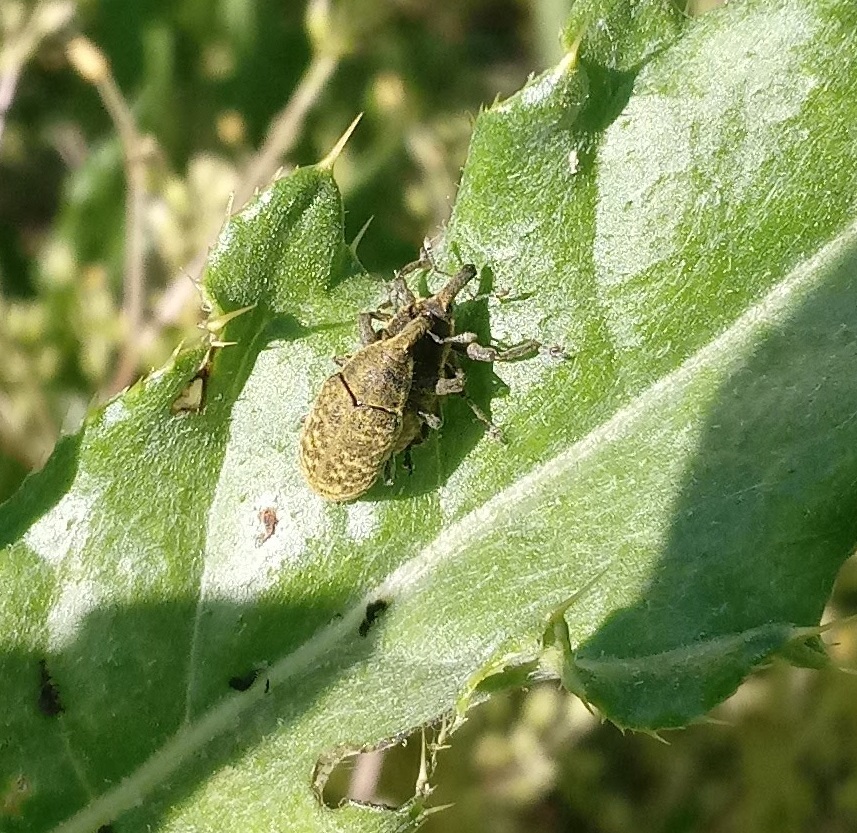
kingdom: Animalia
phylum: Arthropoda
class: Insecta
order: Coleoptera
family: Curculionidae
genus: Larinus
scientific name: Larinus carlinae
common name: Weevil
